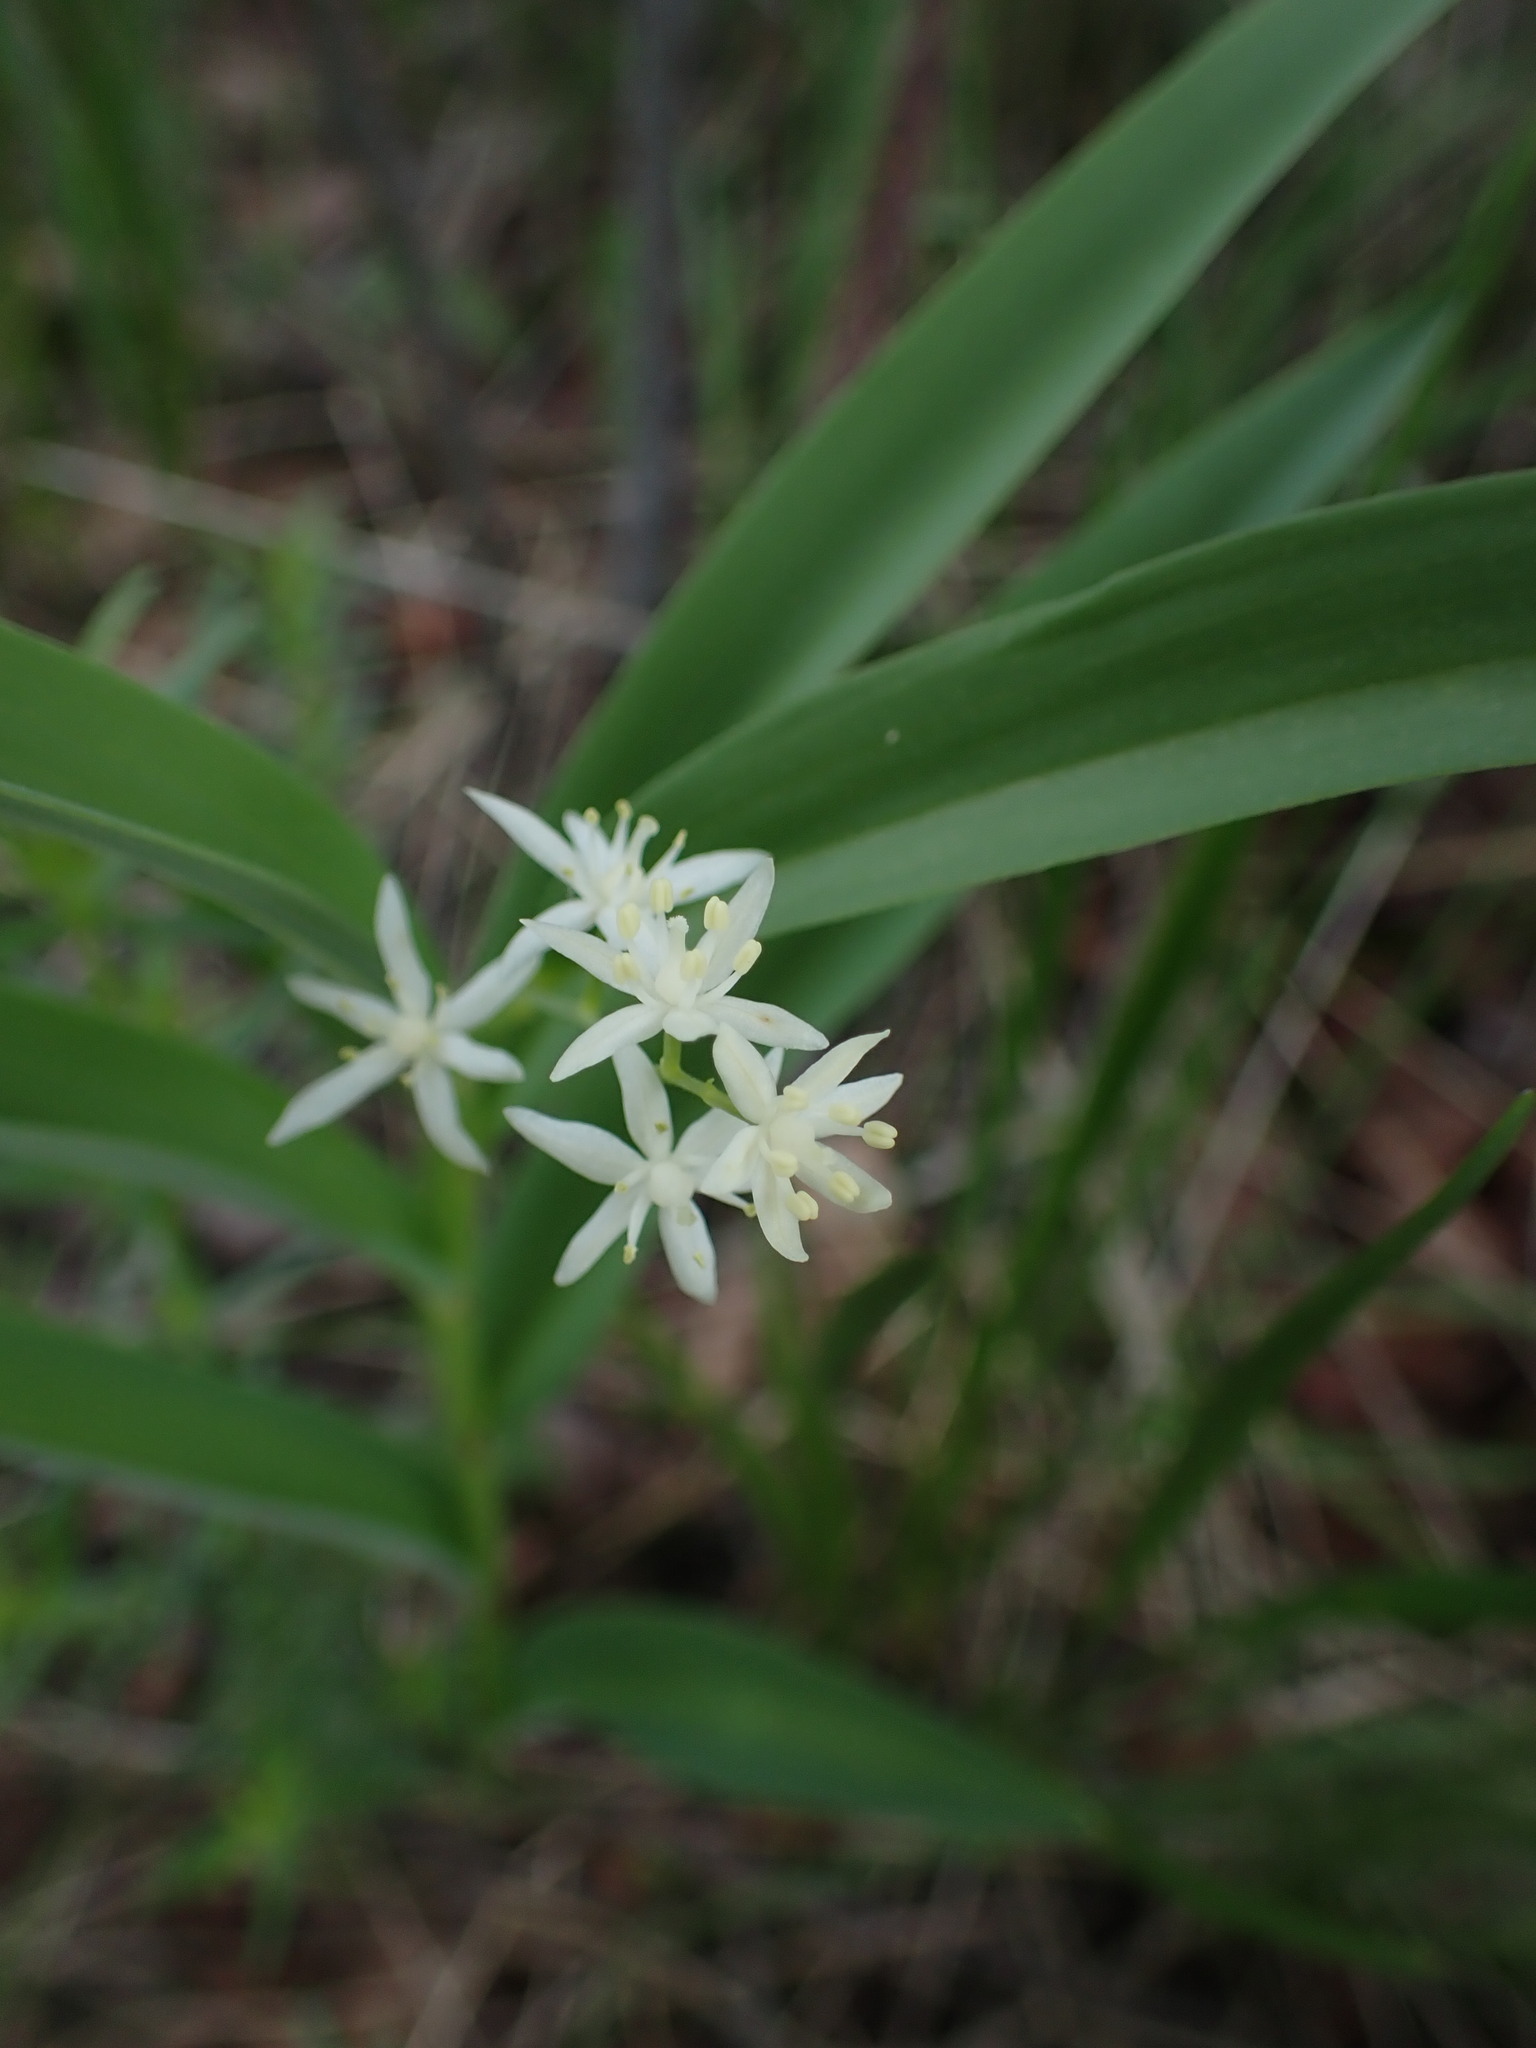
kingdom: Plantae
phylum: Tracheophyta
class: Liliopsida
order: Asparagales
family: Asparagaceae
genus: Maianthemum
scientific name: Maianthemum stellatum
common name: Little false solomon's seal
